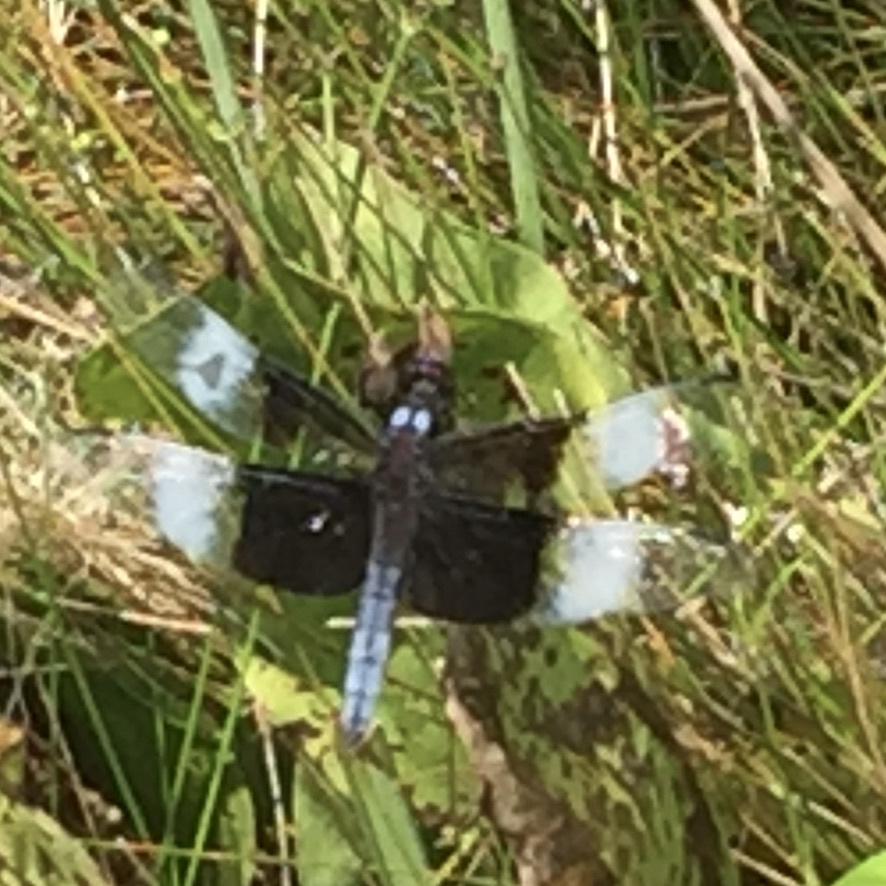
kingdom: Animalia
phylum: Arthropoda
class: Insecta
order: Odonata
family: Libellulidae
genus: Libellula
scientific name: Libellula luctuosa
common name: Widow skimmer
